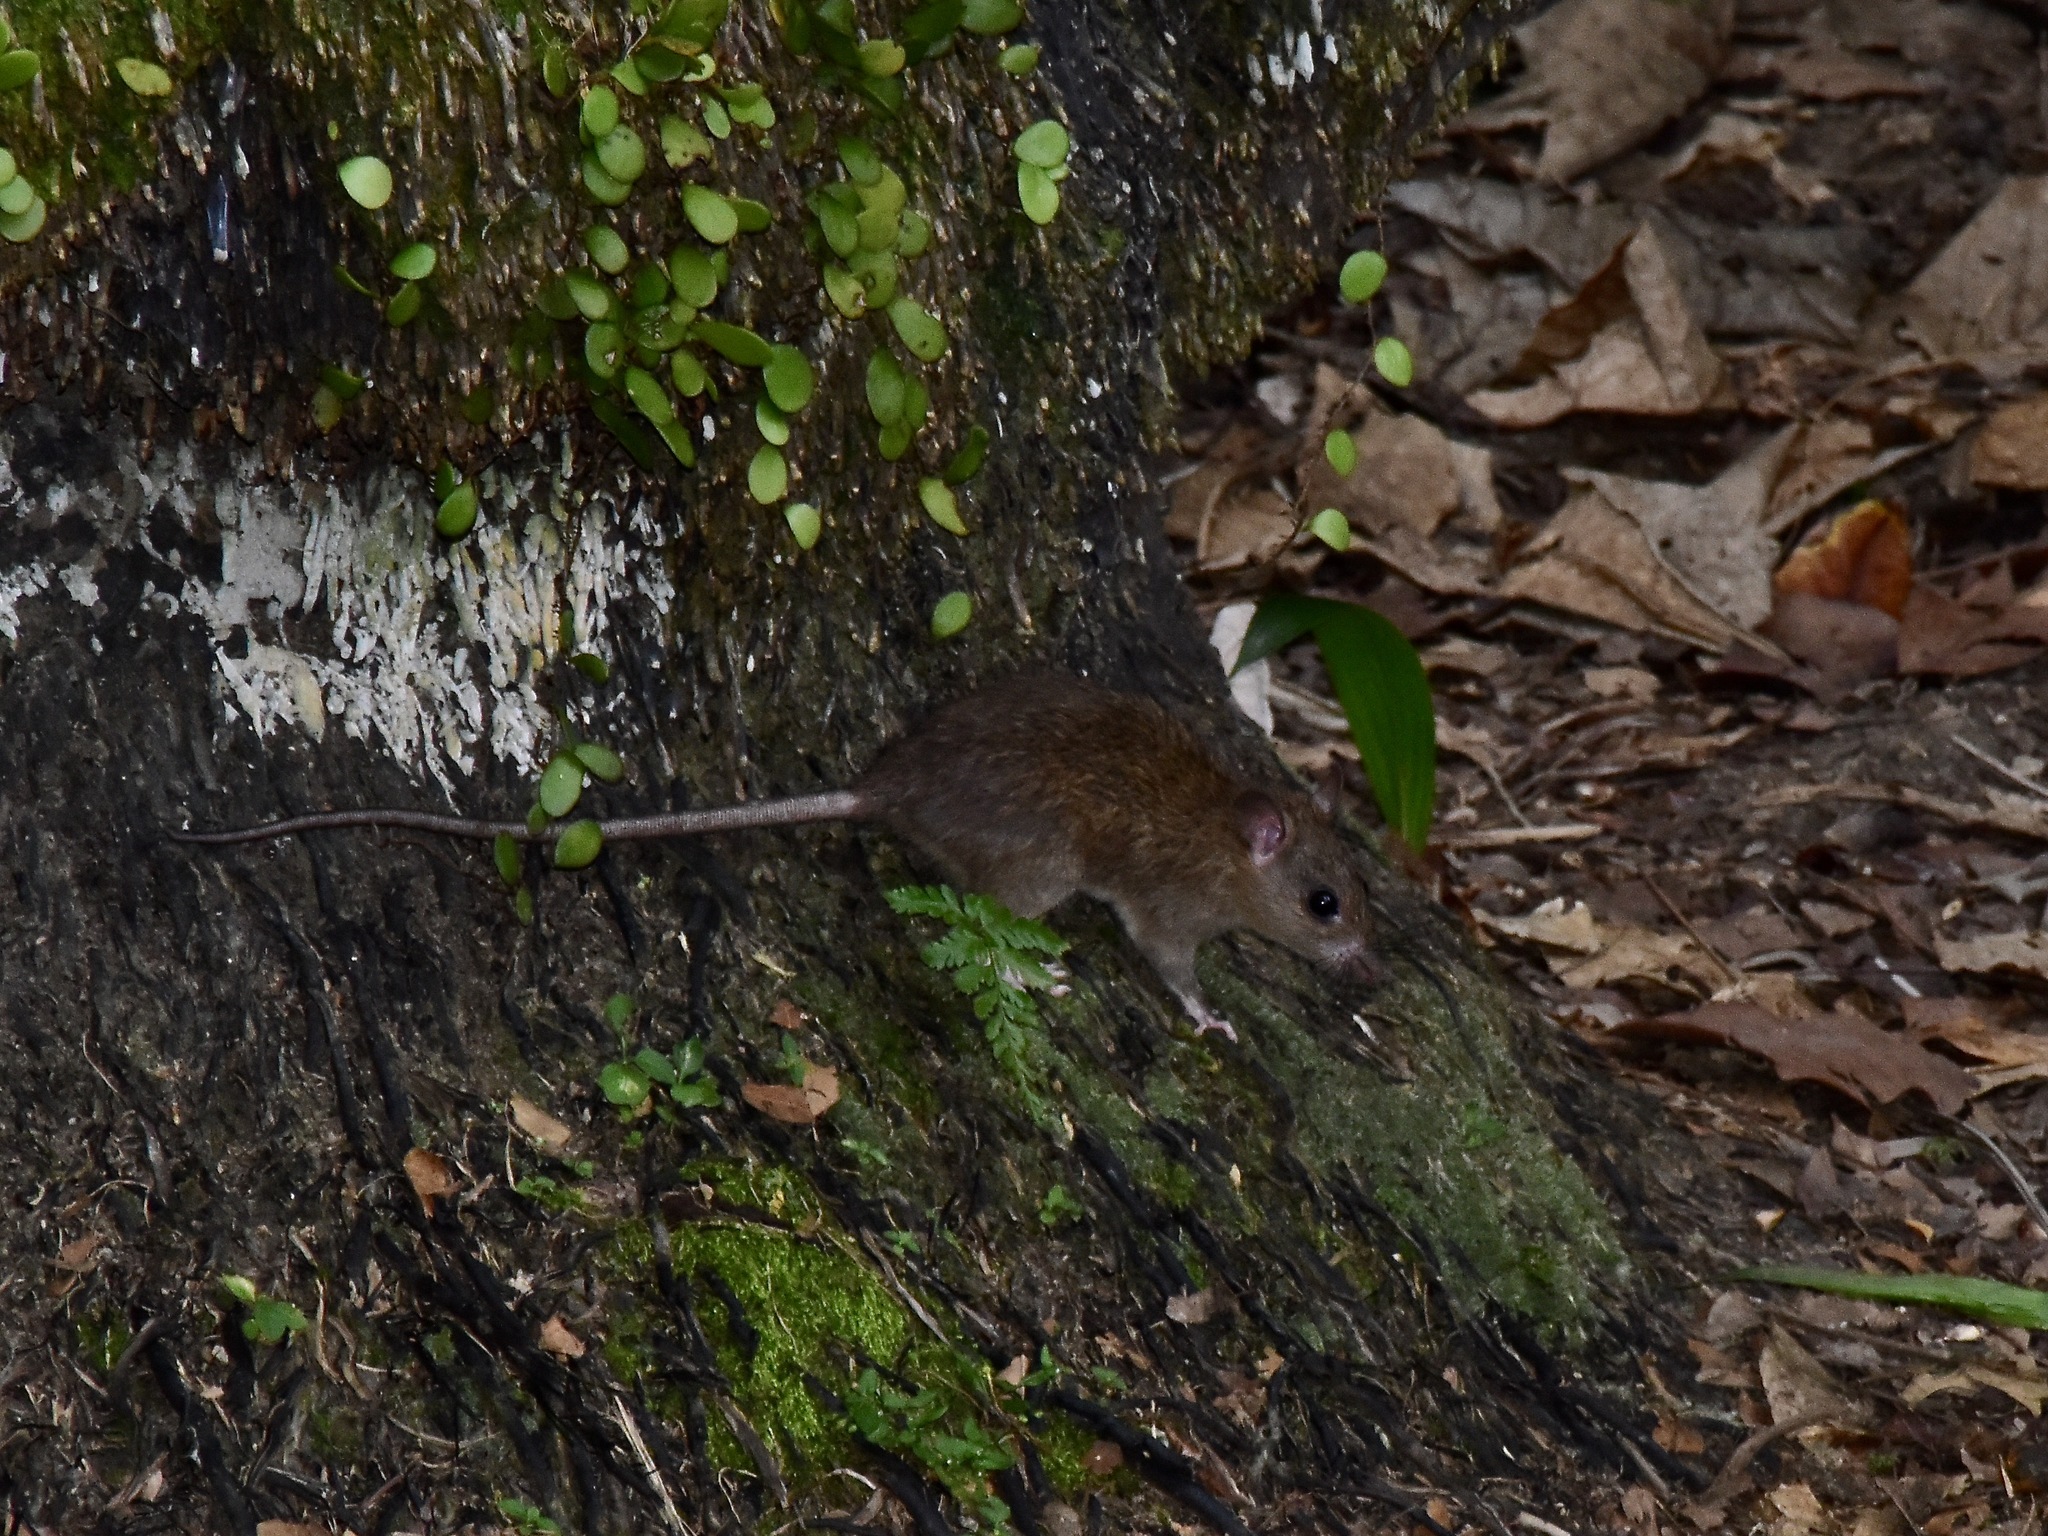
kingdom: Animalia
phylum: Chordata
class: Mammalia
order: Rodentia
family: Muridae
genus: Rattus
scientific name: Rattus tanezumi
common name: Oriental house rat
